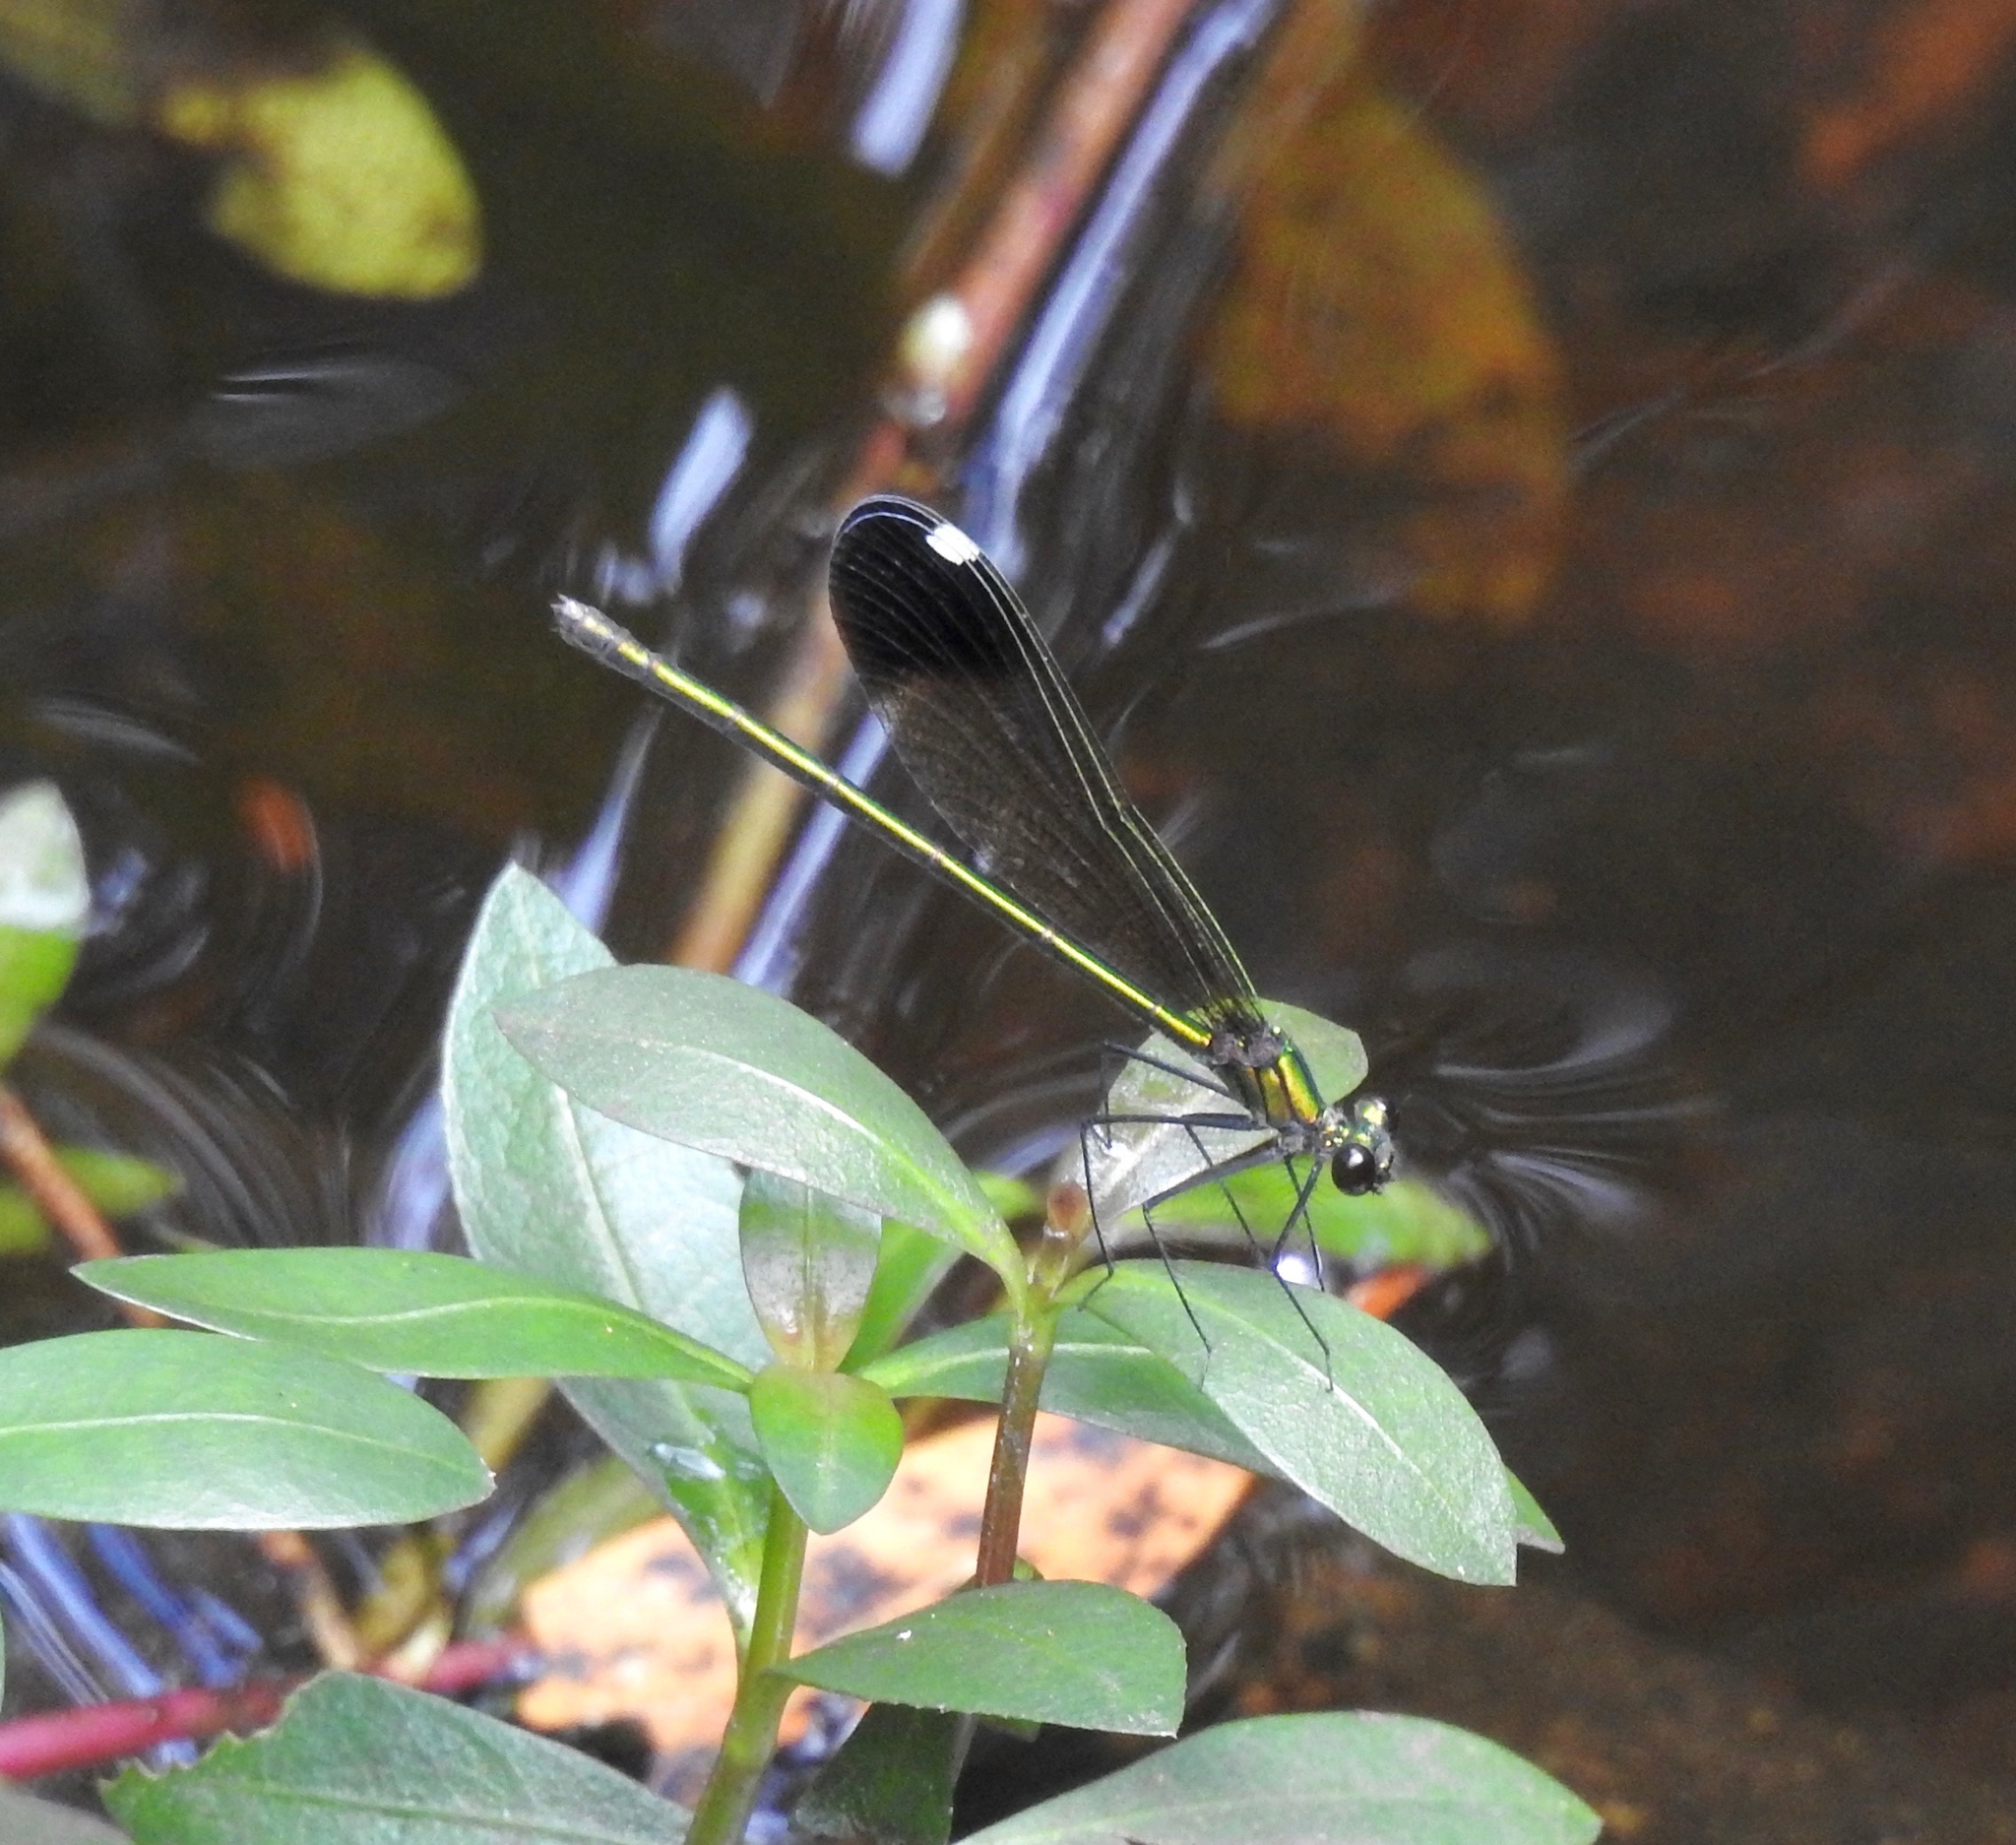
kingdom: Animalia
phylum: Arthropoda
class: Insecta
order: Odonata
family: Calopterygidae
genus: Calopteryx
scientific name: Calopteryx dimidiata
